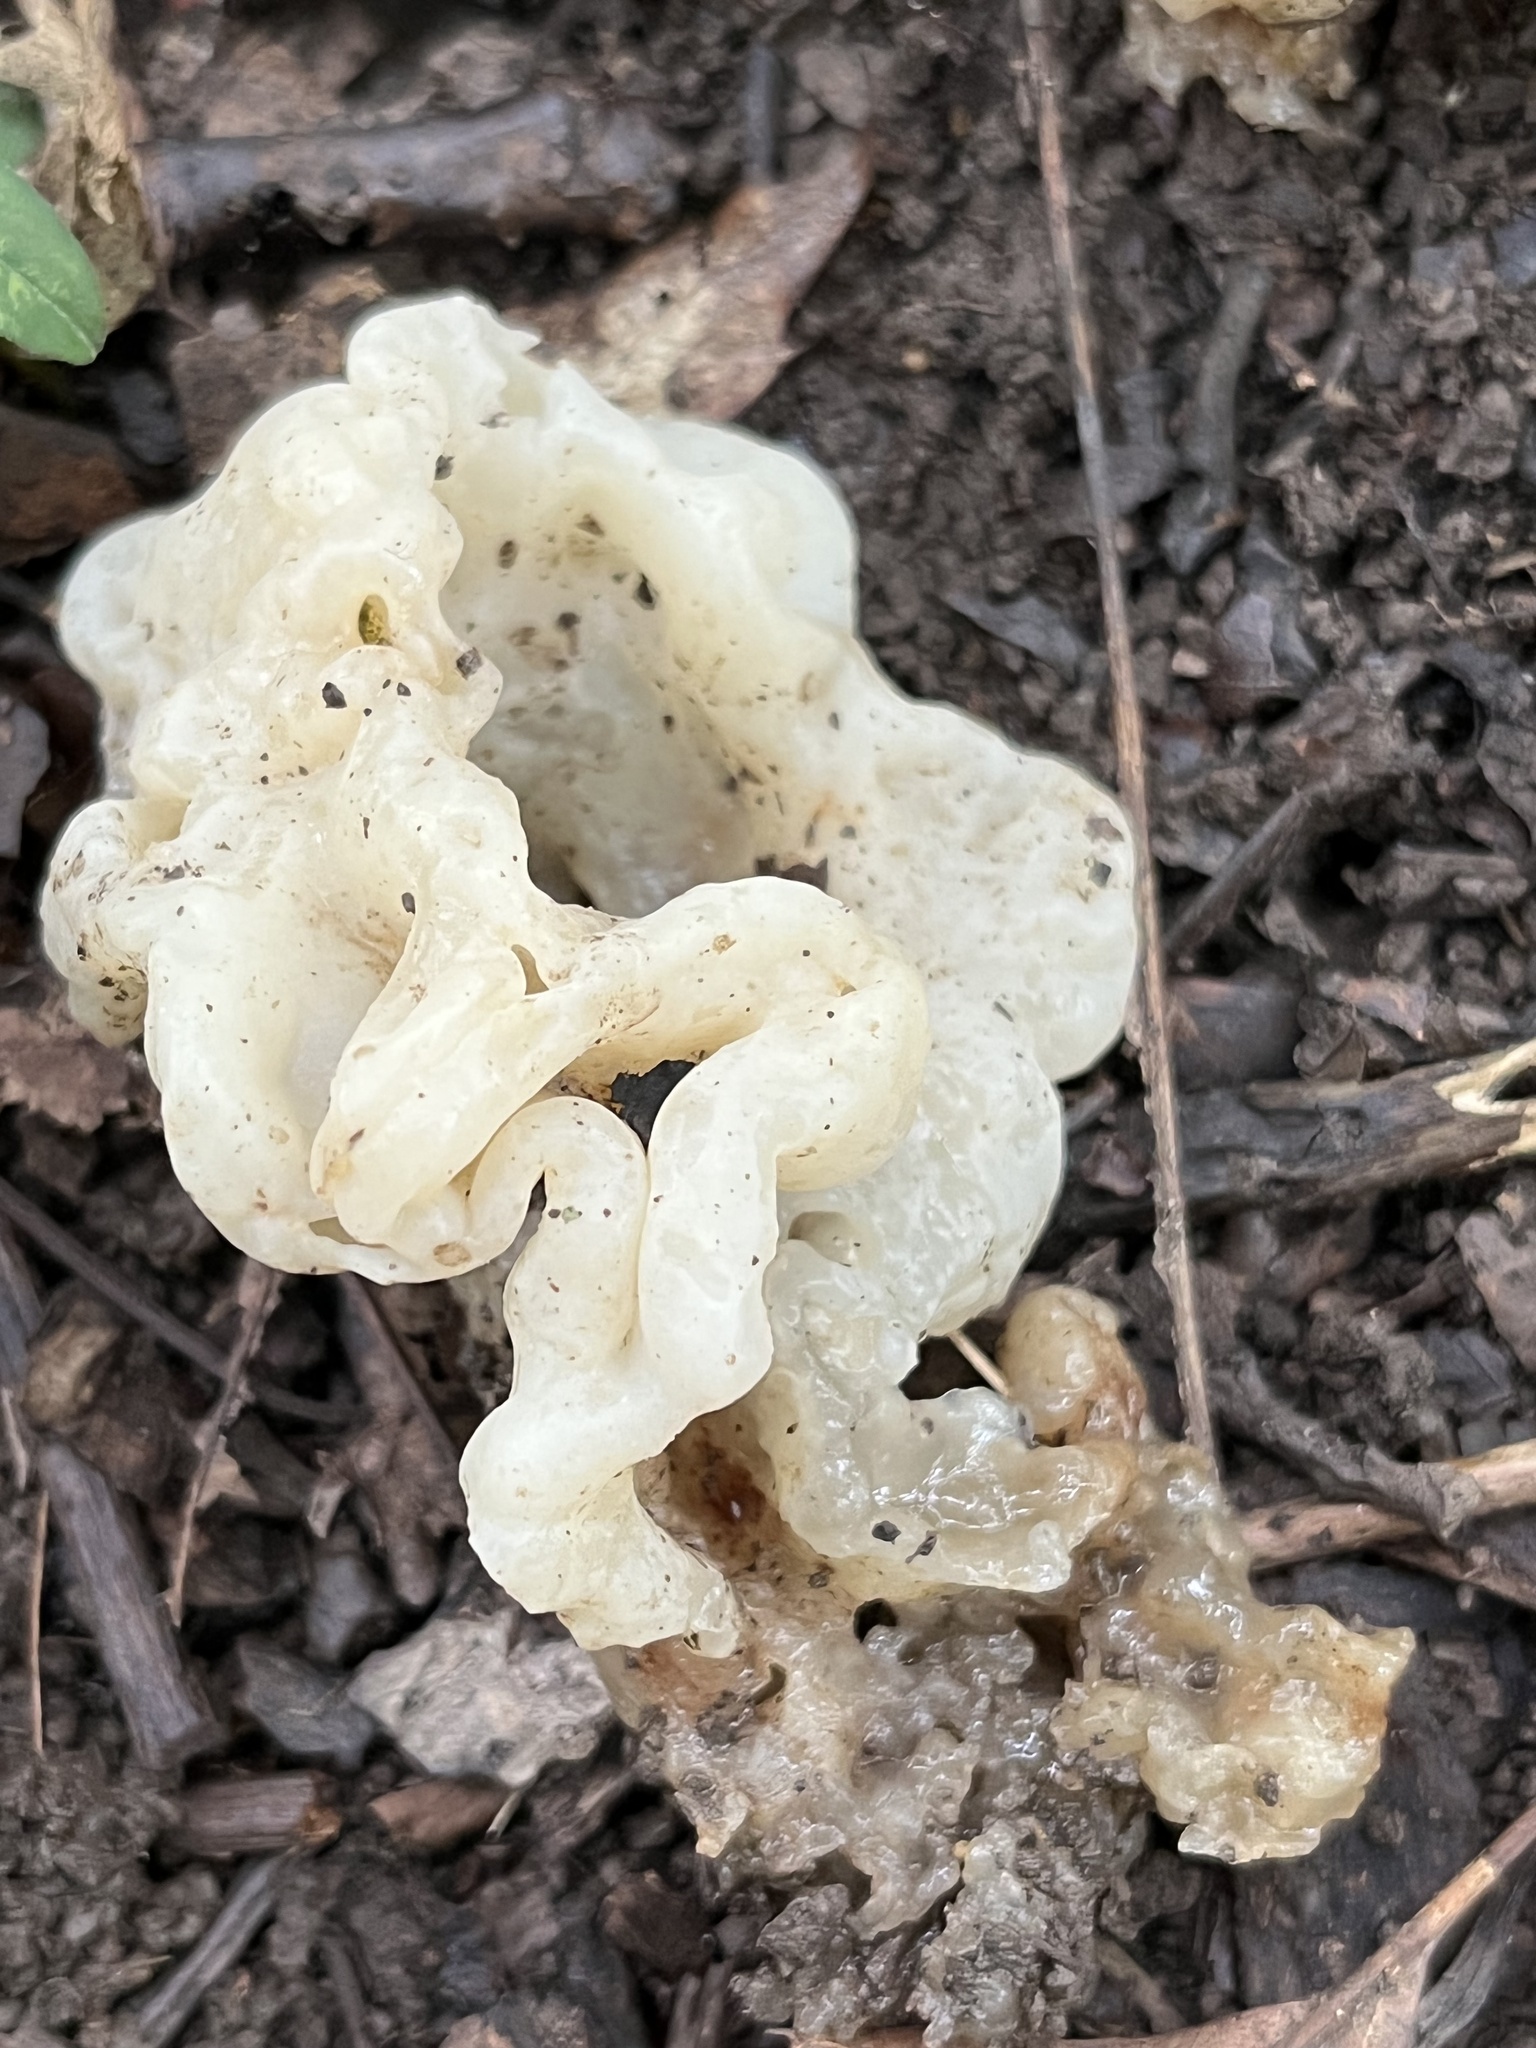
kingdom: Fungi
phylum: Basidiomycota
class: Agaricomycetes
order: Sebacinales
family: Sebacinaceae
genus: Sebacina
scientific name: Sebacina sparassoidea
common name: White coral jelly fungus
